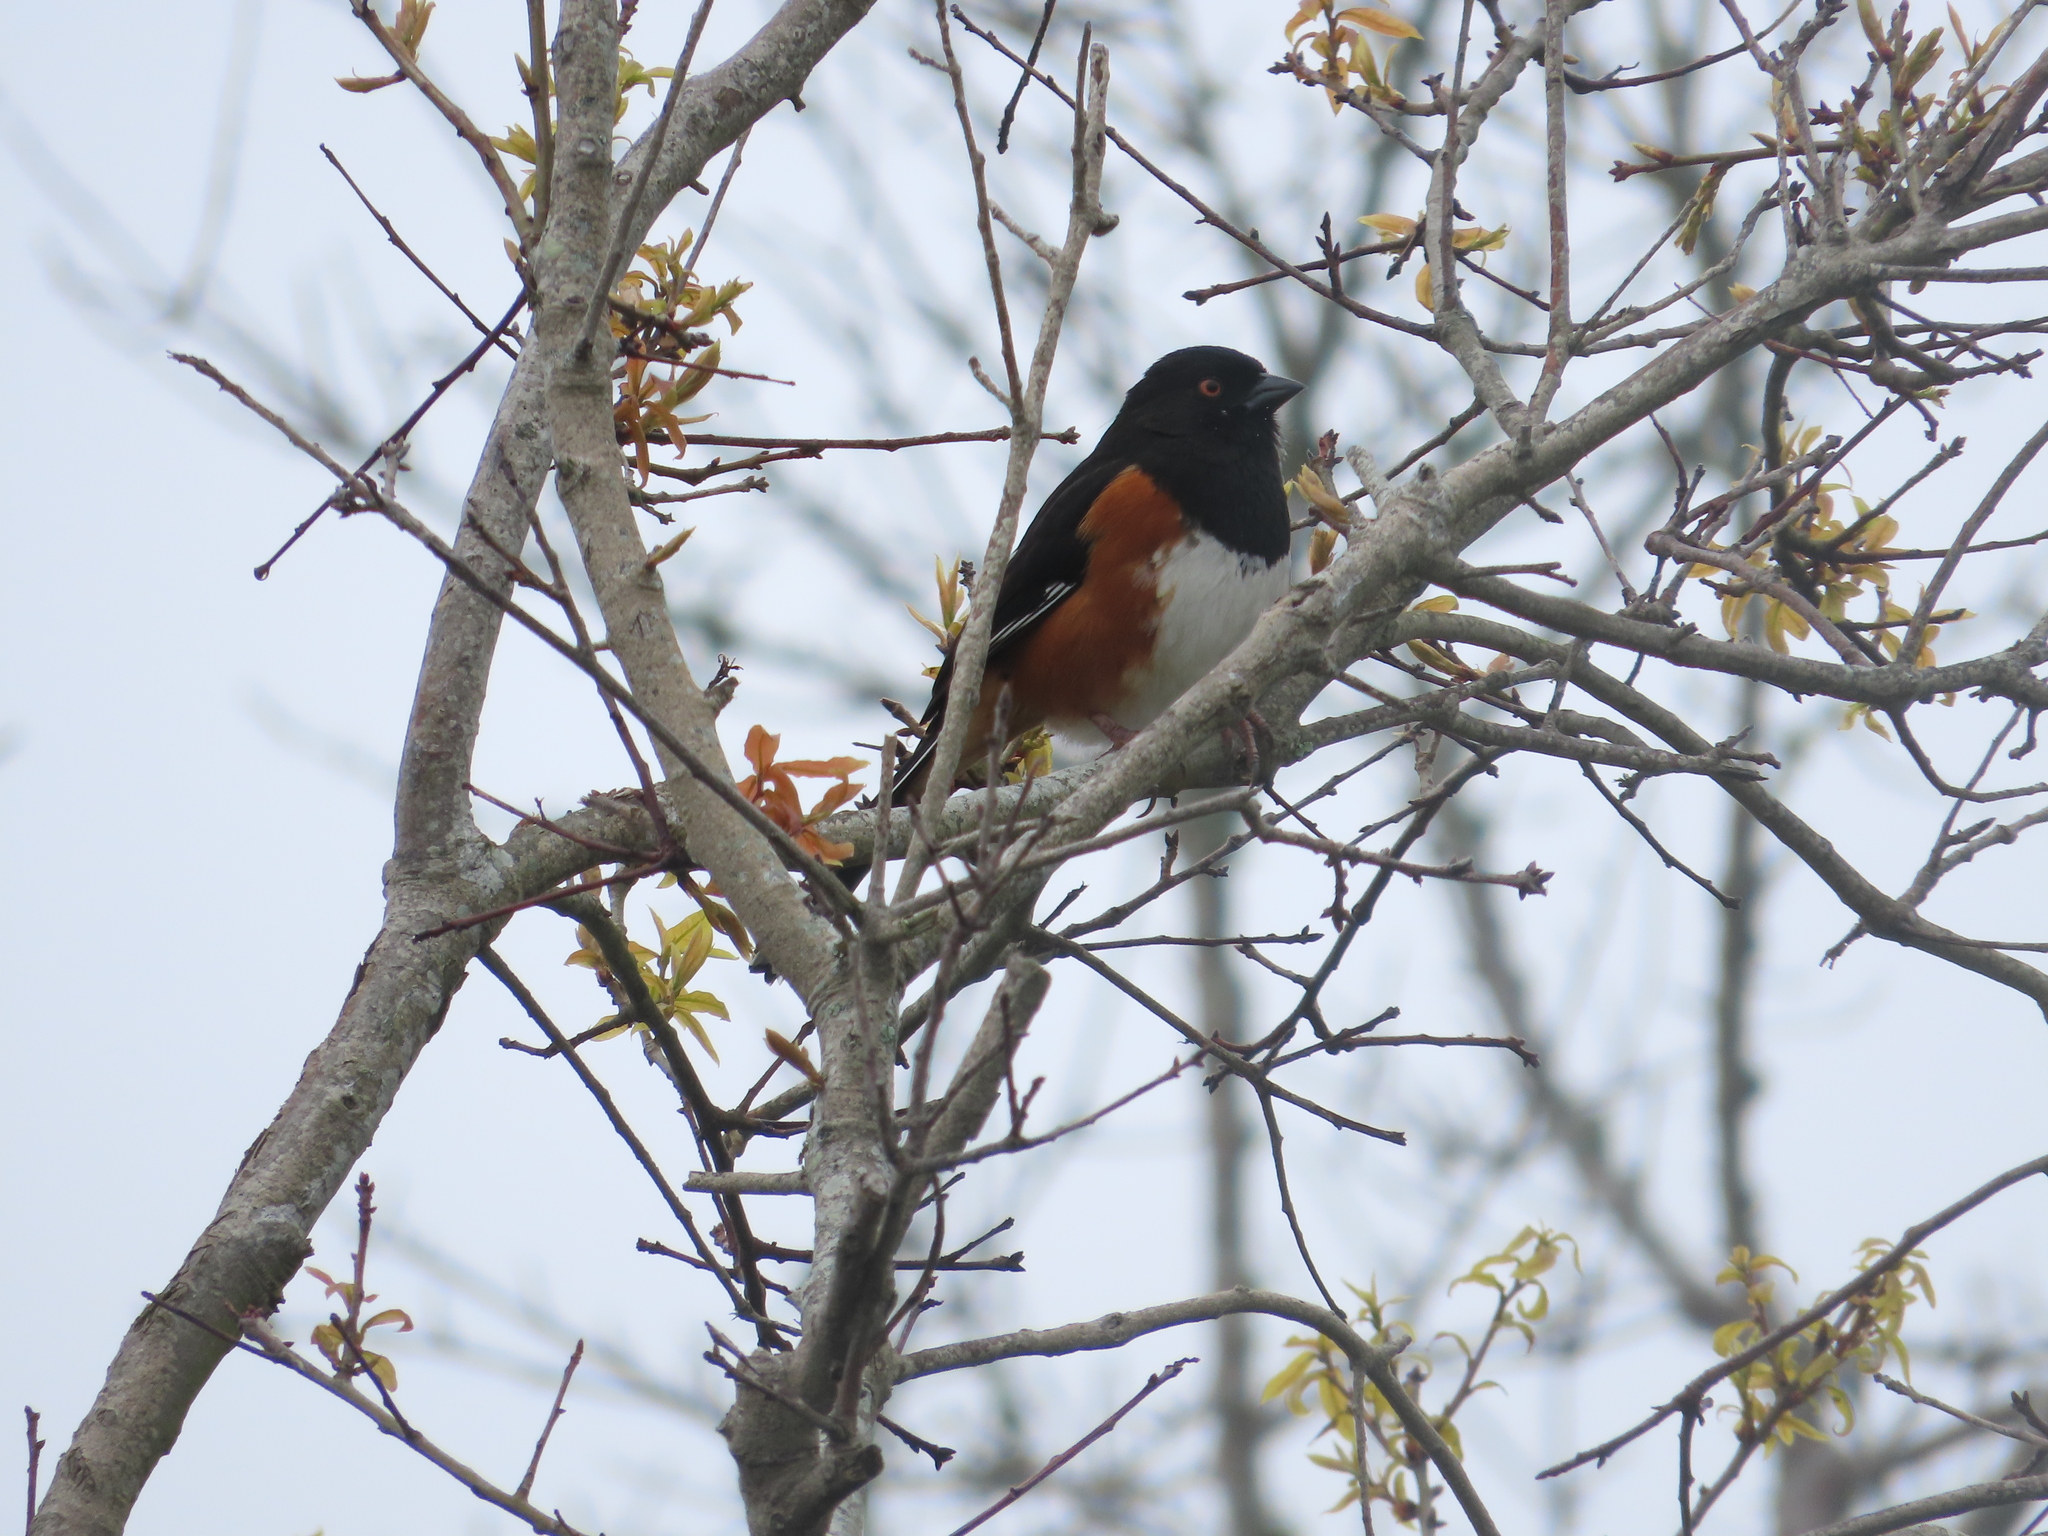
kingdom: Animalia
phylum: Chordata
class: Aves
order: Passeriformes
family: Passerellidae
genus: Pipilo
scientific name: Pipilo erythrophthalmus
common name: Eastern towhee
